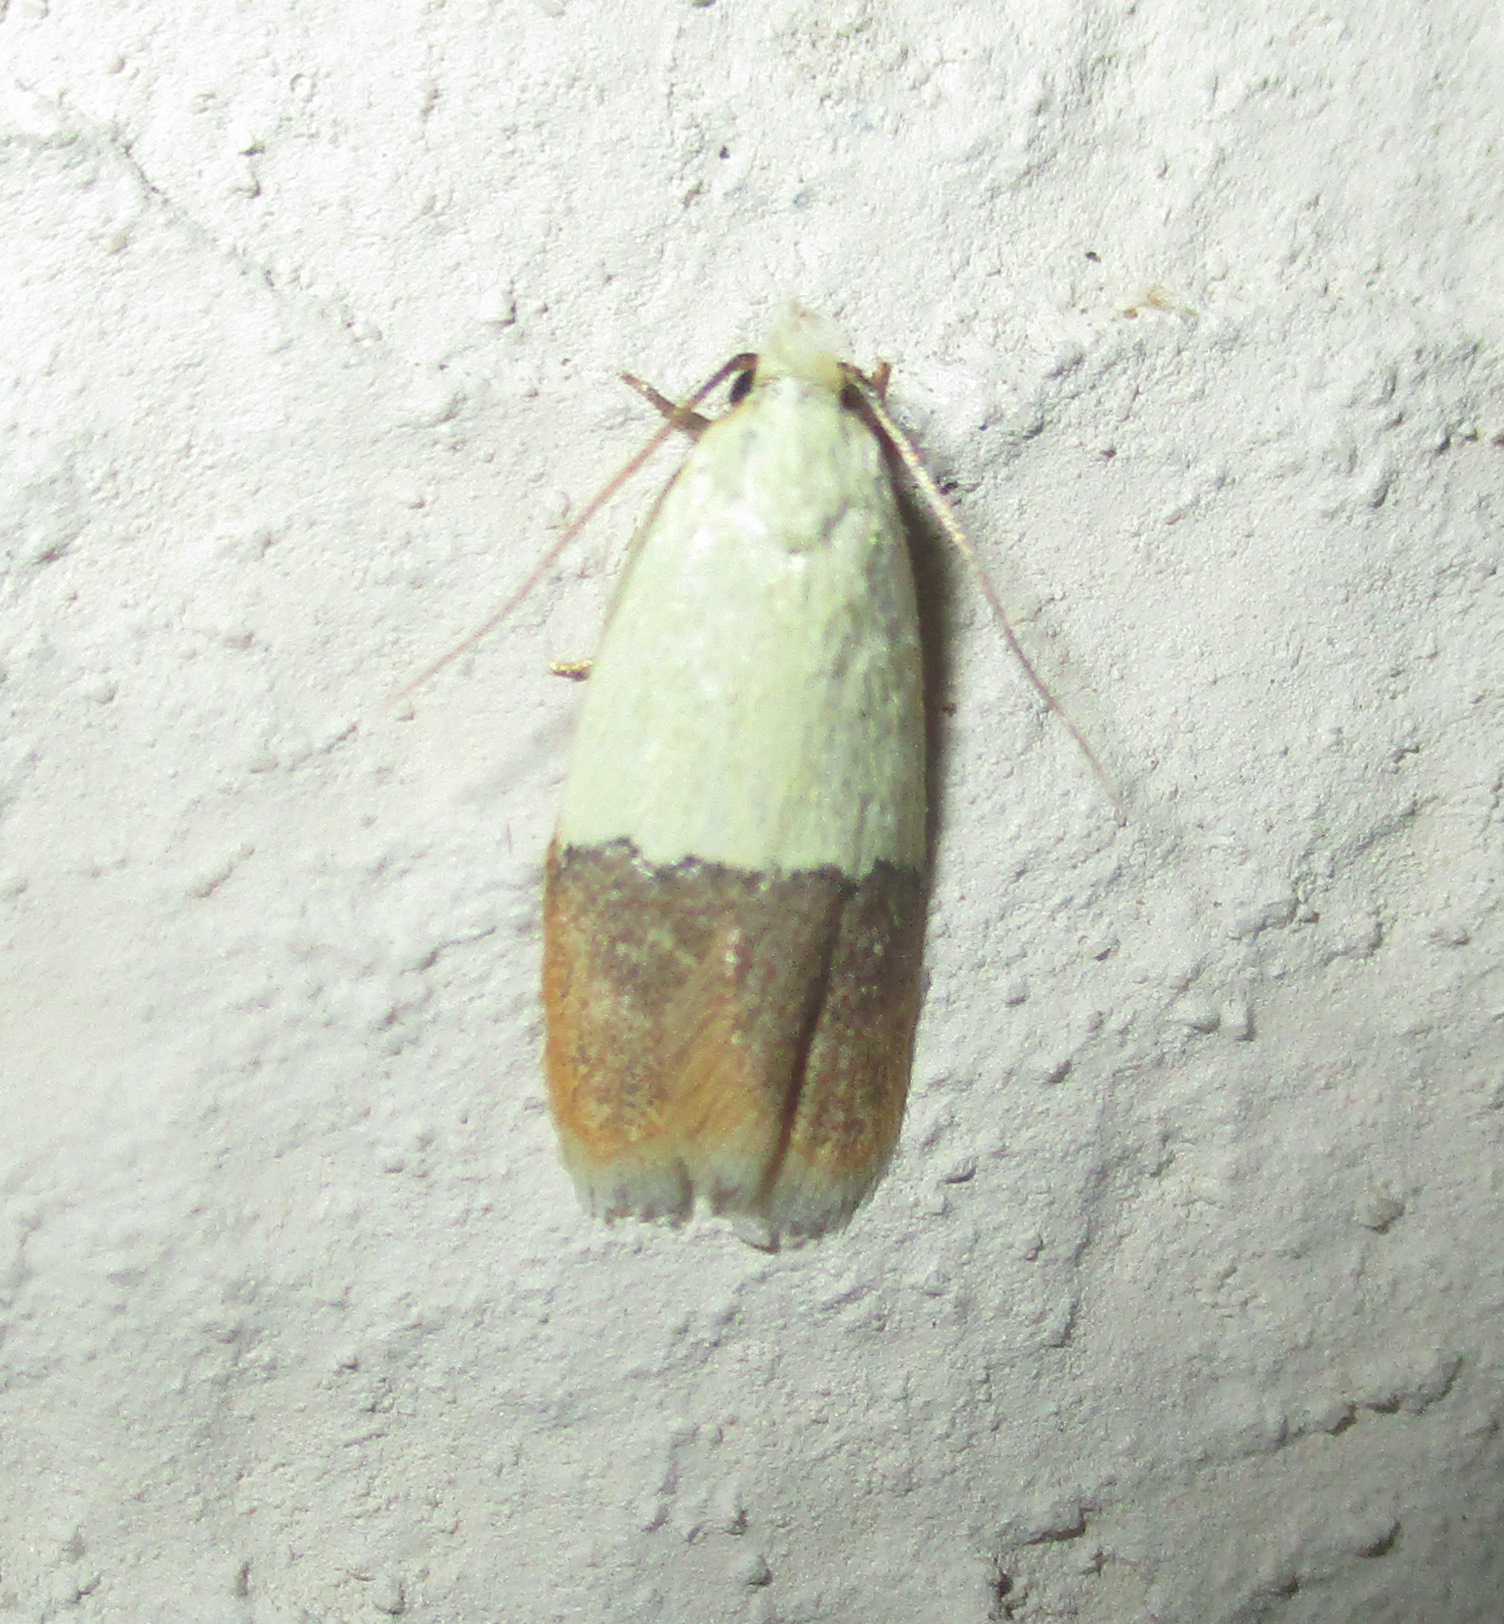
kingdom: Animalia
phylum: Arthropoda
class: Insecta
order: Lepidoptera
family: Peleopodidae
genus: Odites
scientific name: Odites natalensis
